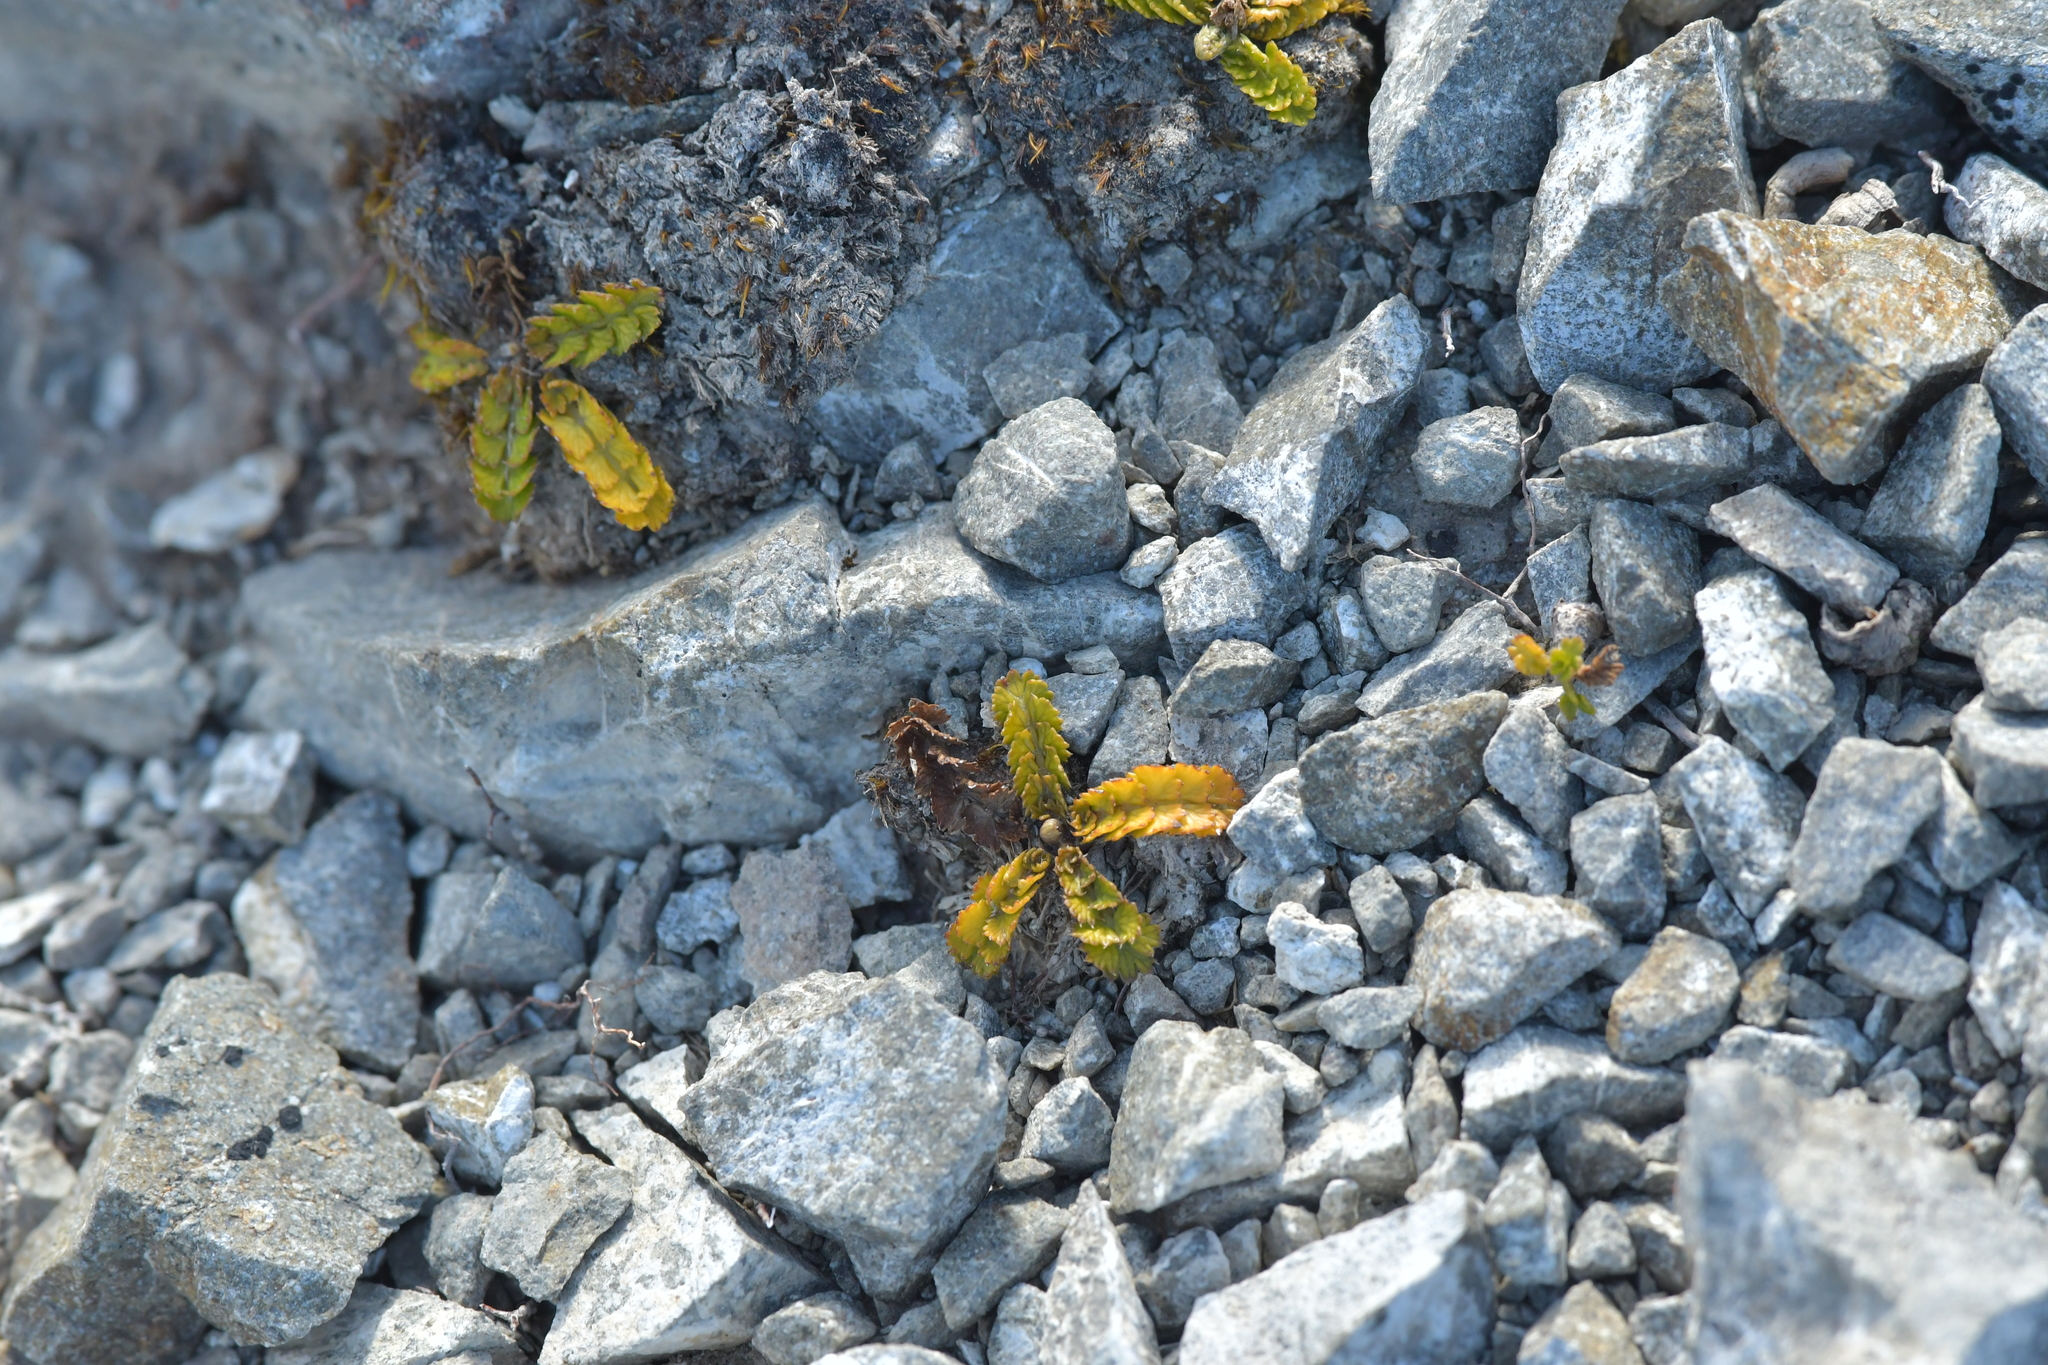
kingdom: Plantae
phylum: Tracheophyta
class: Magnoliopsida
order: Apiales
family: Apiaceae
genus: Anisotome
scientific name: Anisotome aromatica
